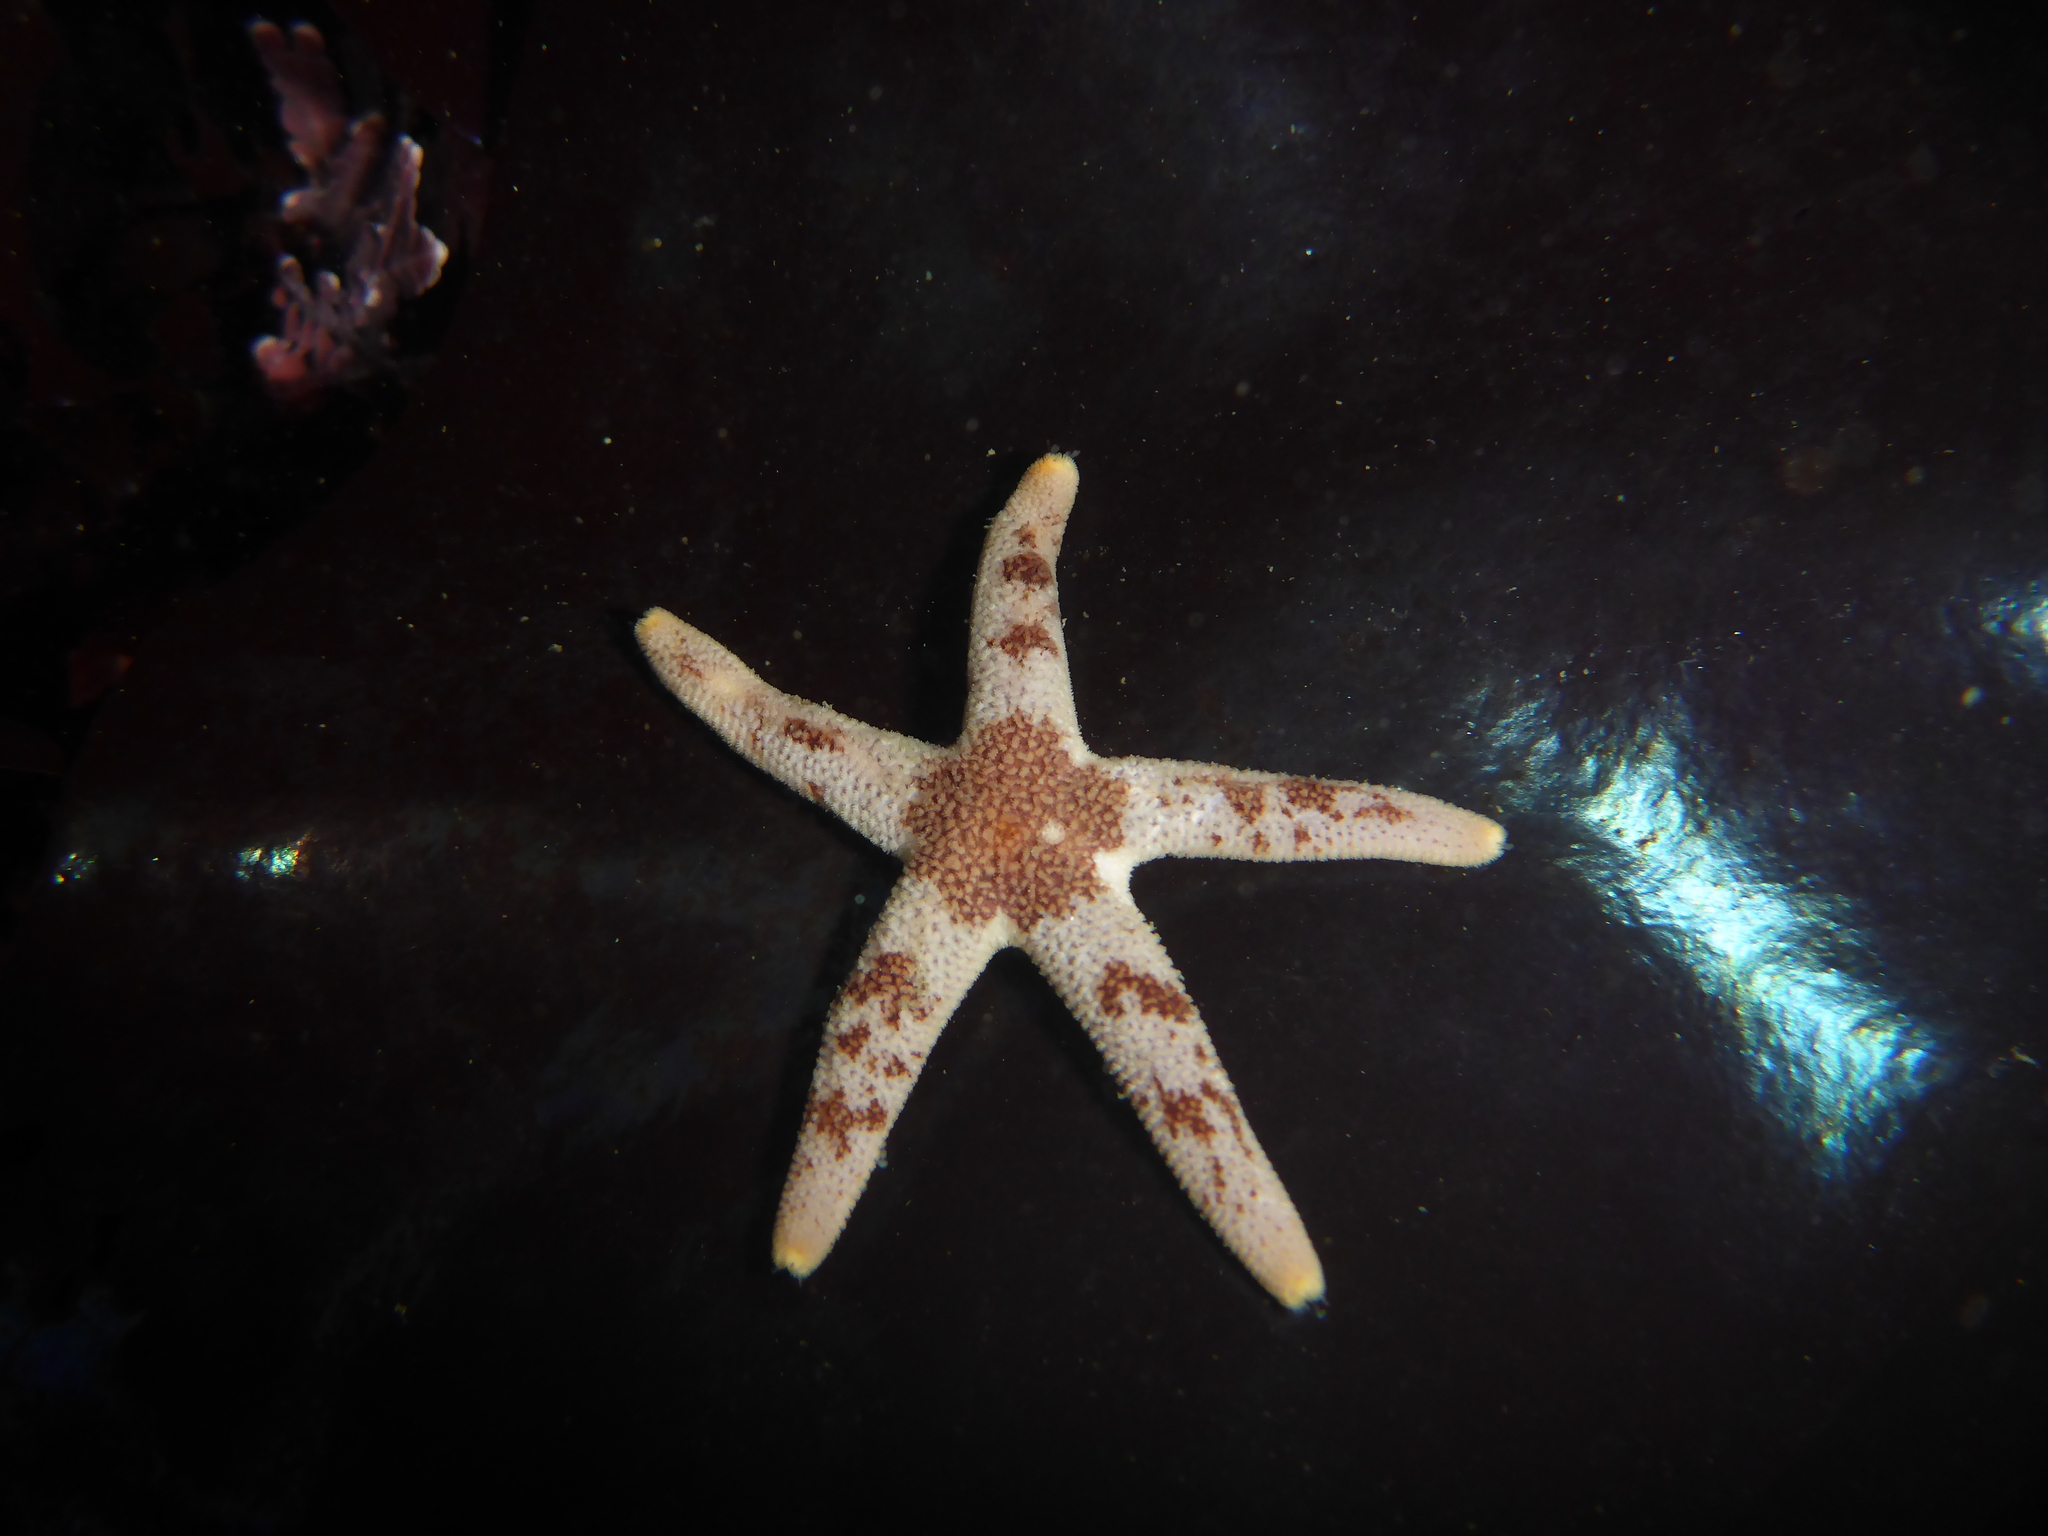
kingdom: Animalia
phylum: Echinodermata
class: Asteroidea
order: Spinulosida
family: Echinasteridae
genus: Henricia
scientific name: Henricia pumila
